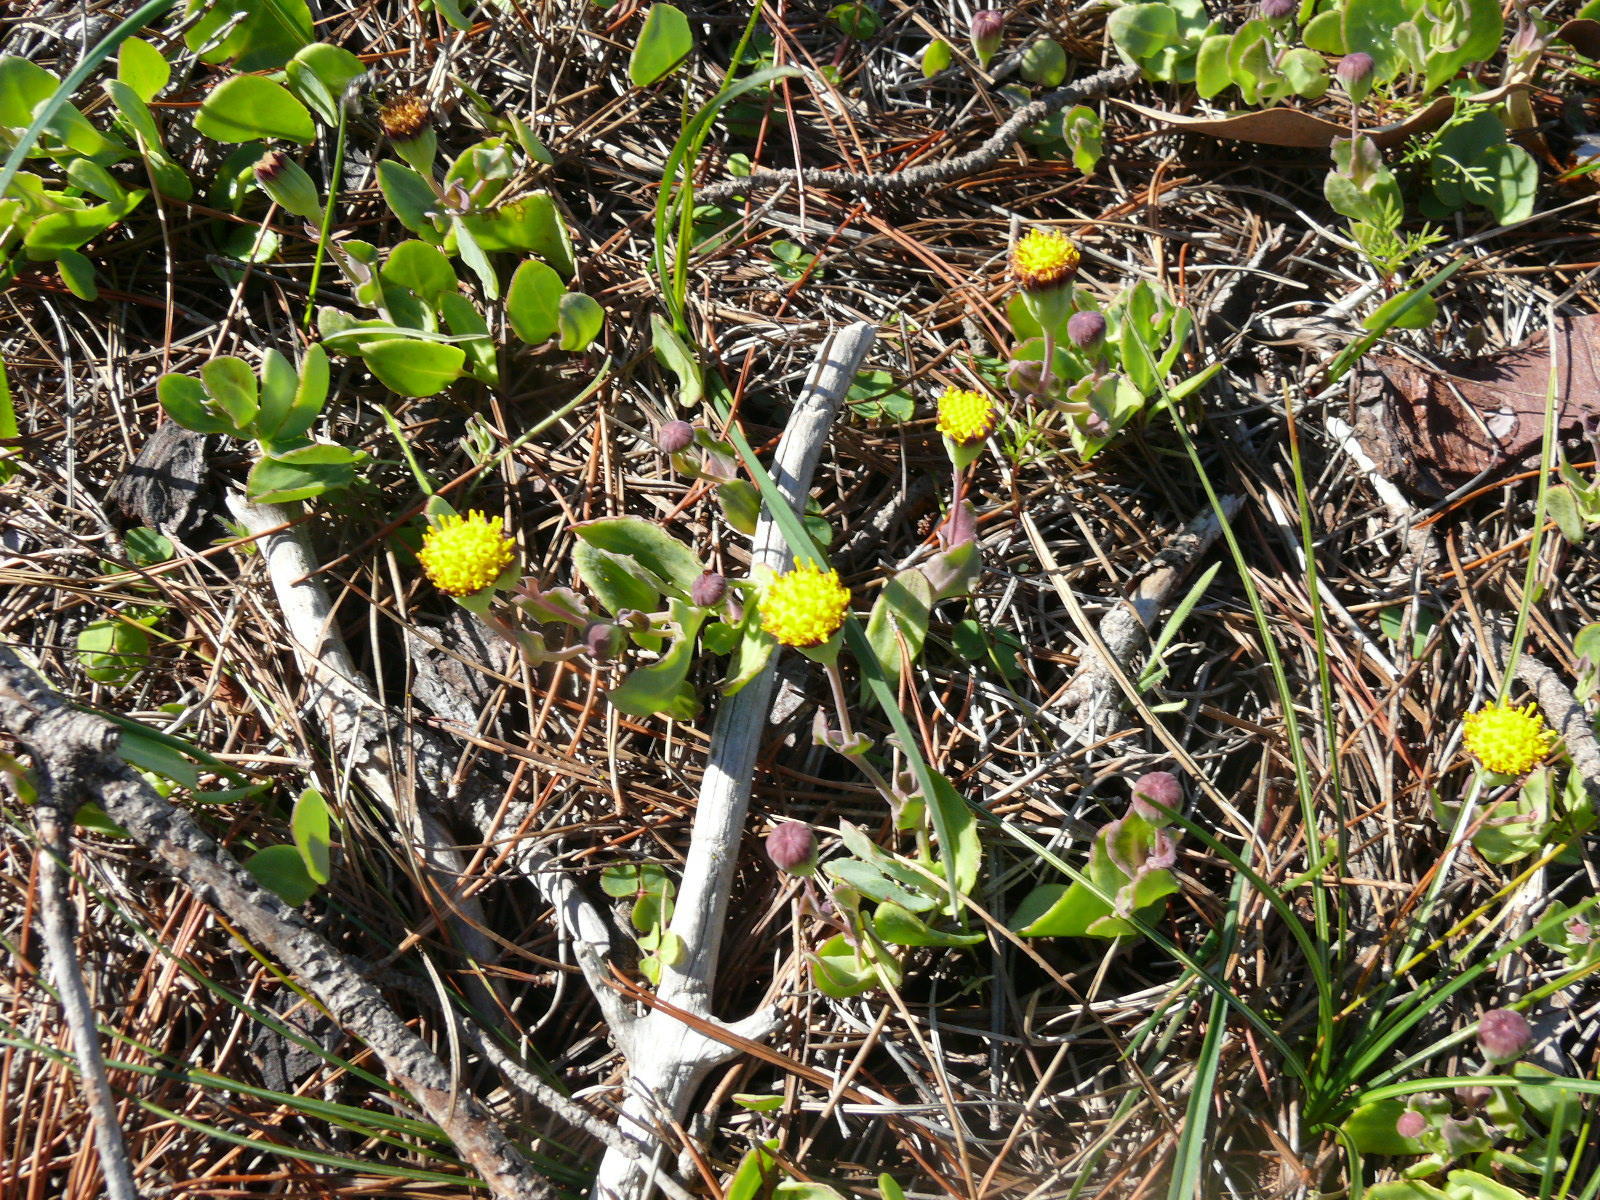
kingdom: Plantae
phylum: Tracheophyta
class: Magnoliopsida
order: Asterales
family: Asteraceae
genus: Othonna
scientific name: Othonna undulosa
